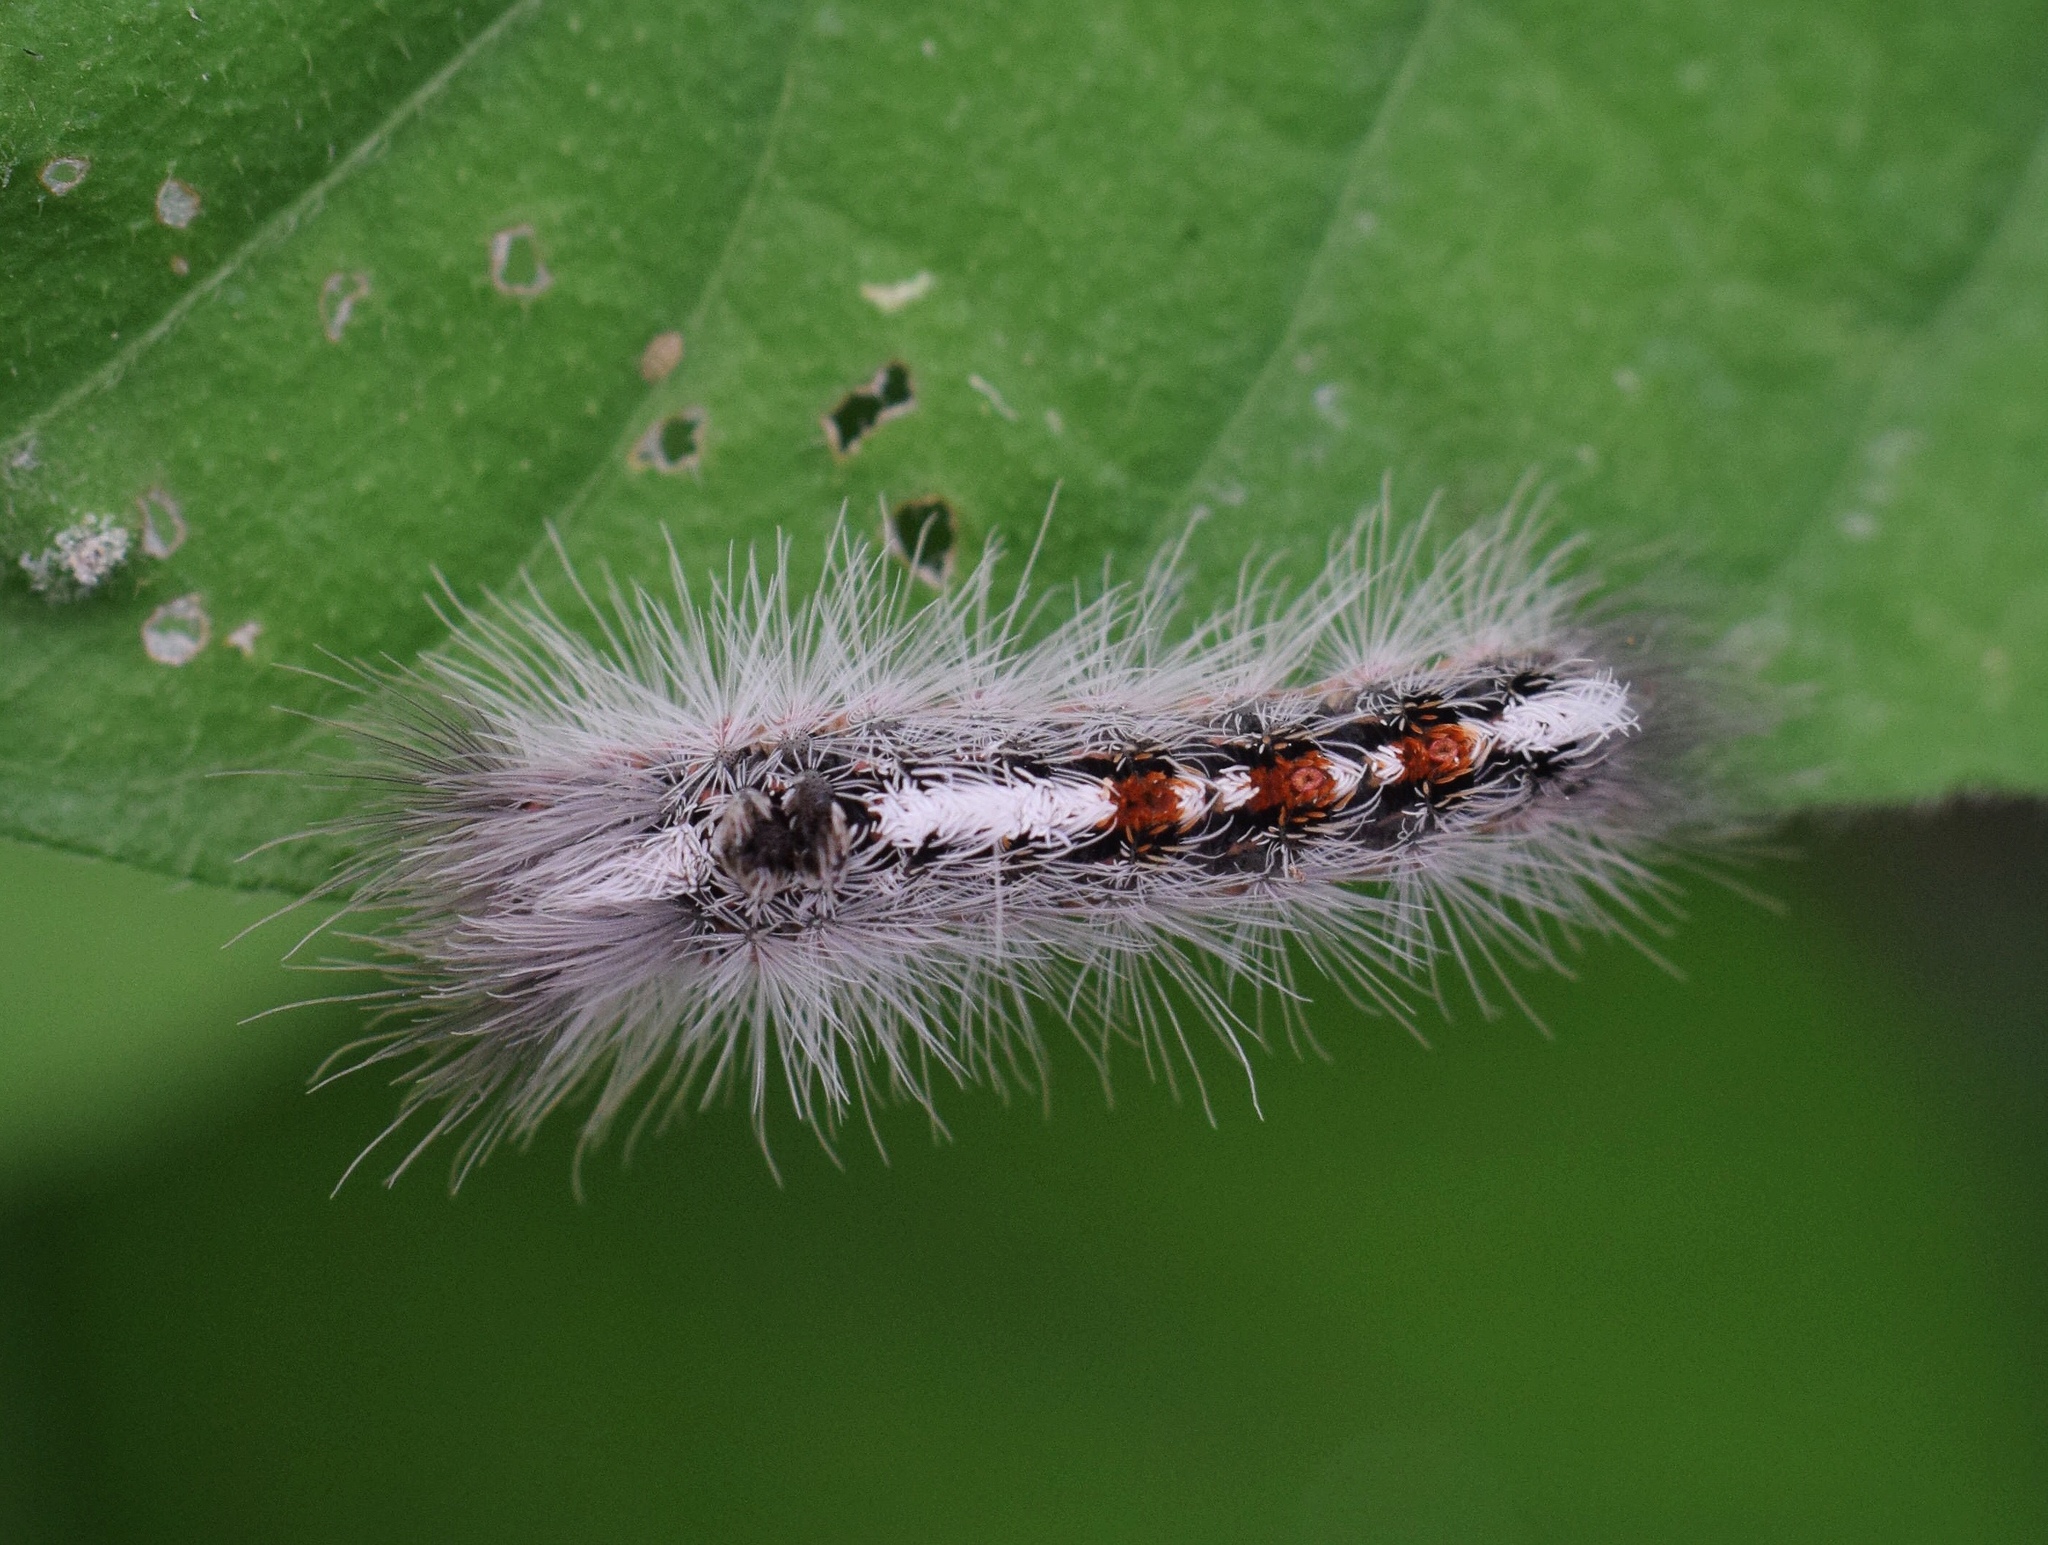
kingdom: Animalia
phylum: Arthropoda
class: Insecta
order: Lepidoptera
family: Erebidae
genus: Euproctis
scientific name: Euproctis punctifera
